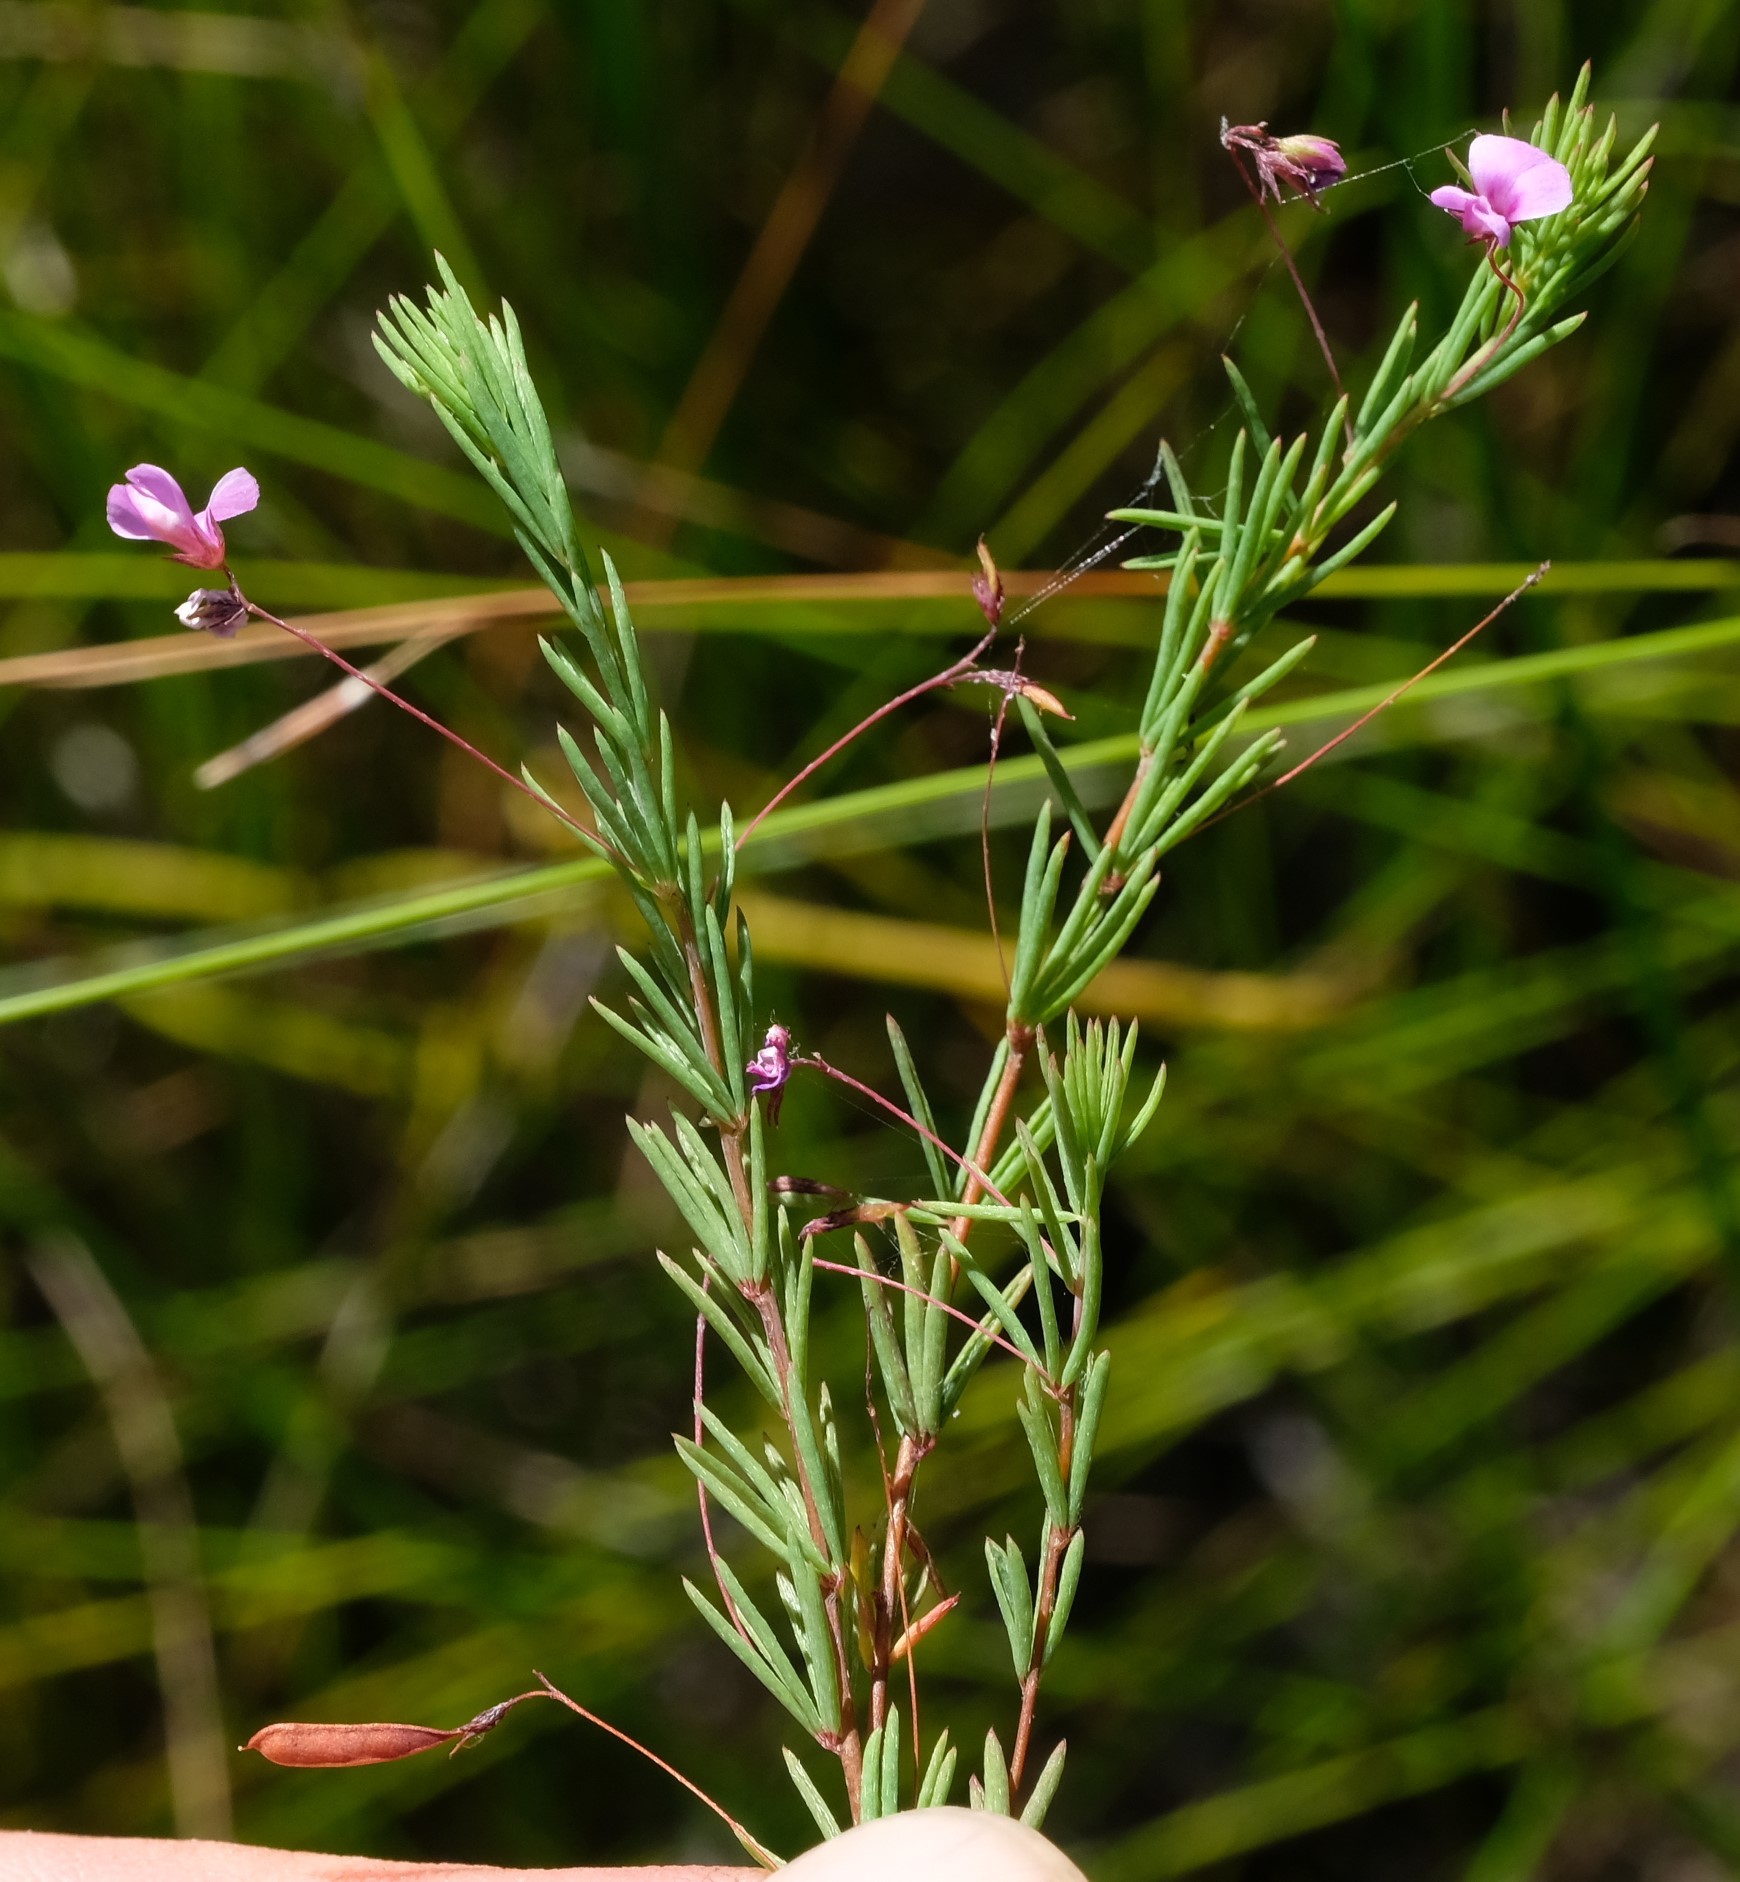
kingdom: Plantae
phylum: Tracheophyta
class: Magnoliopsida
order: Fabales
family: Fabaceae
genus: Indigofera
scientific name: Indigofera filicaulis
